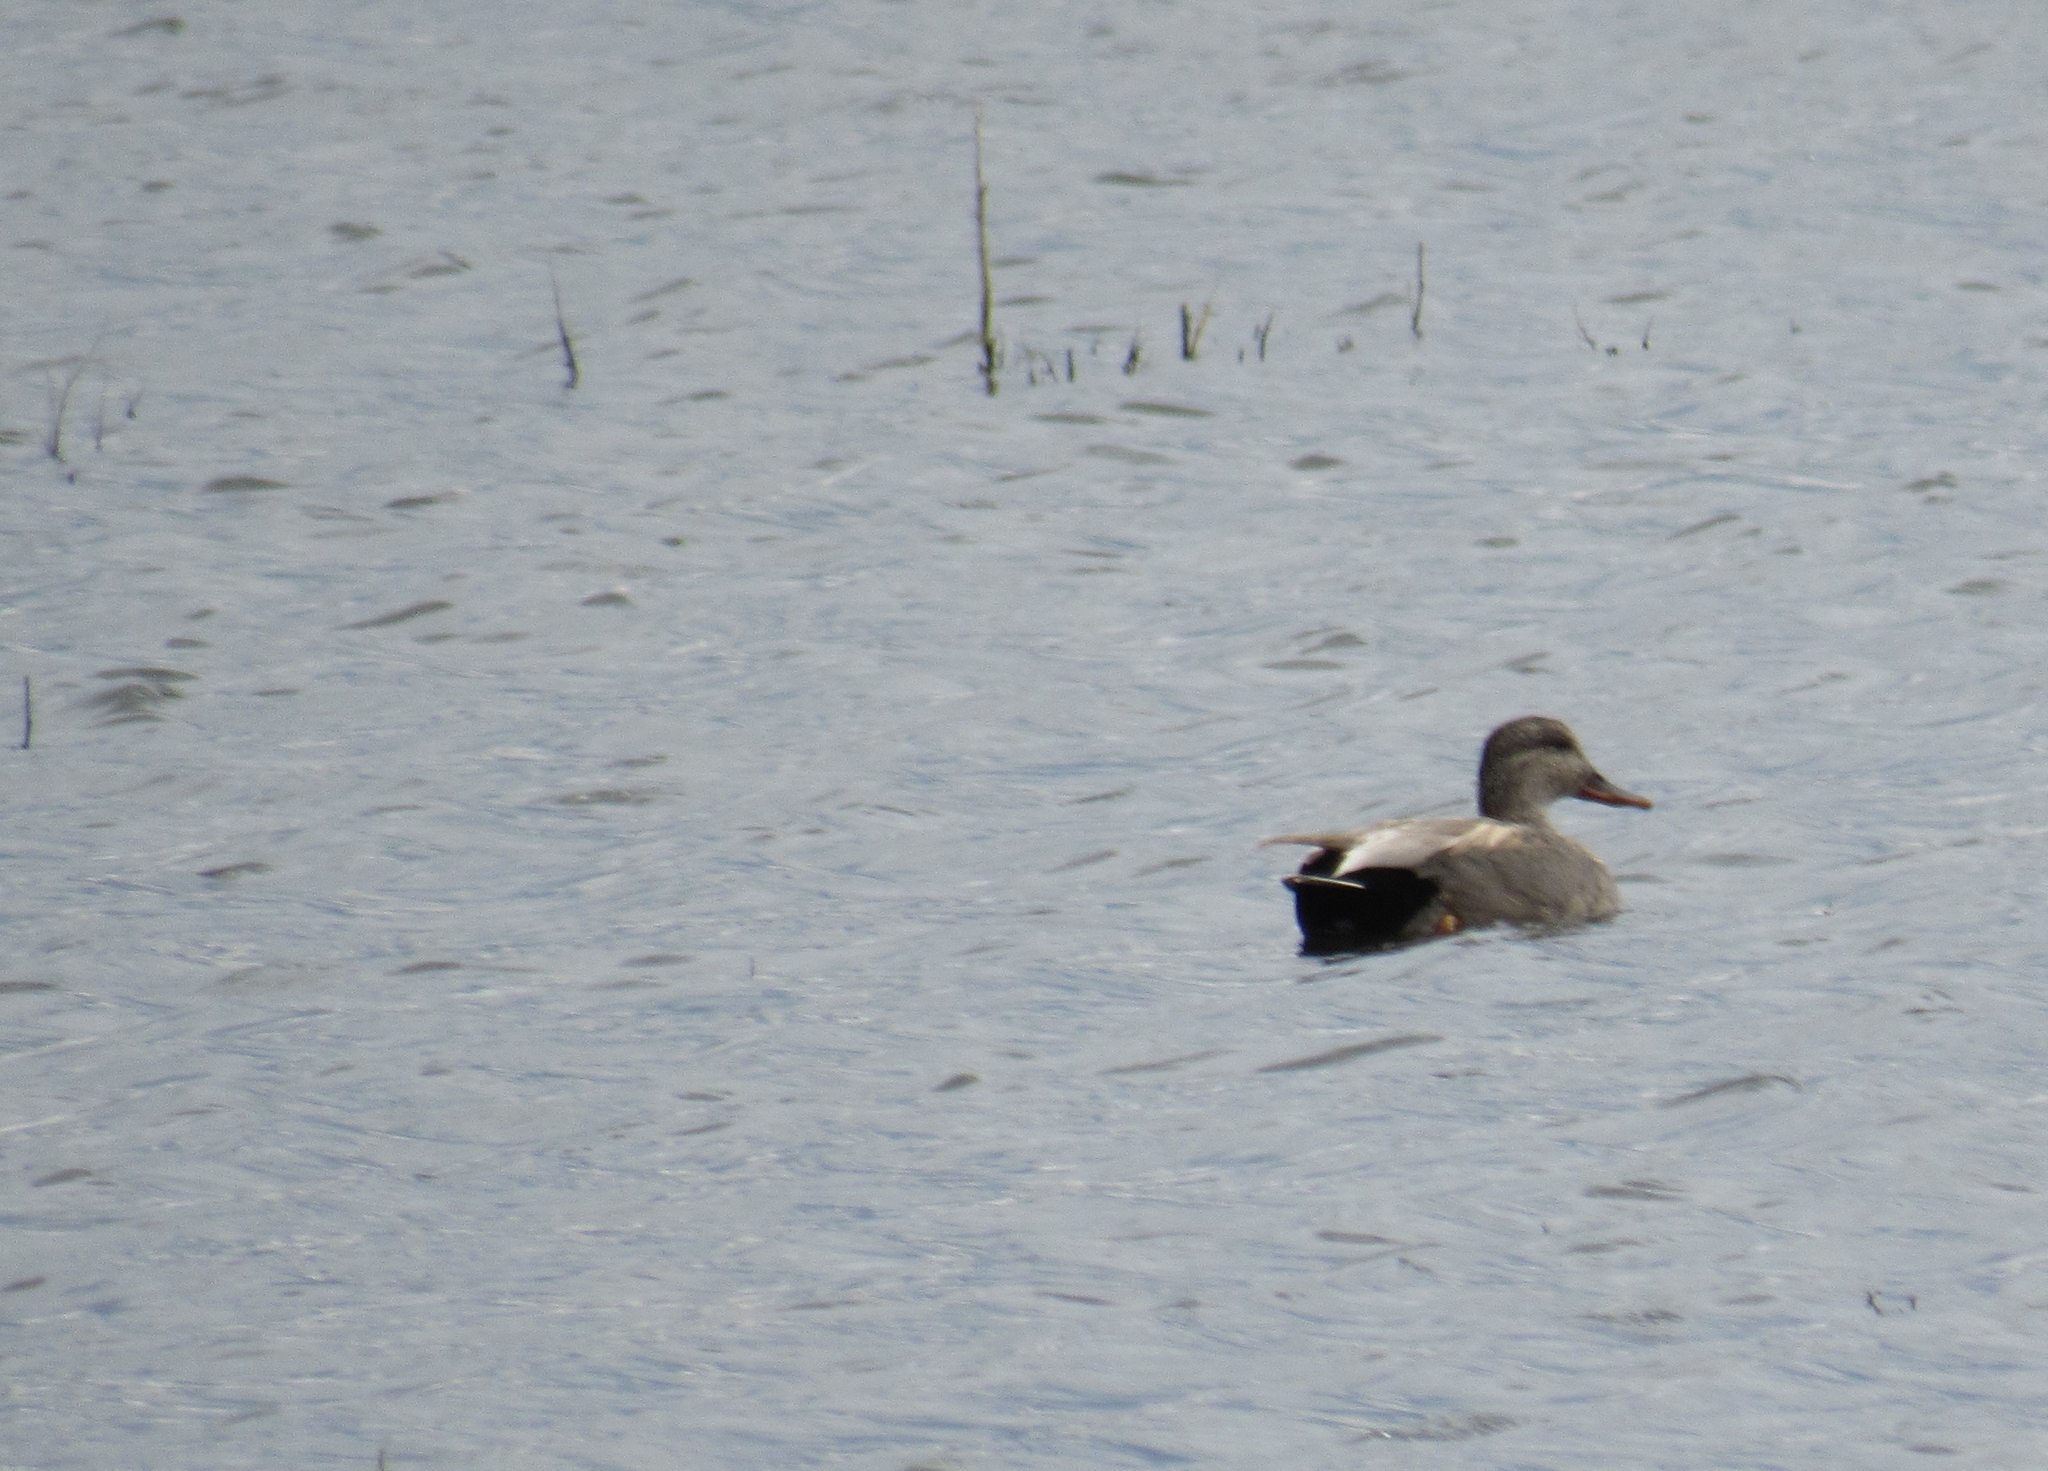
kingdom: Animalia
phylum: Chordata
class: Aves
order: Anseriformes
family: Anatidae
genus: Mareca
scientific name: Mareca strepera
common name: Gadwall
